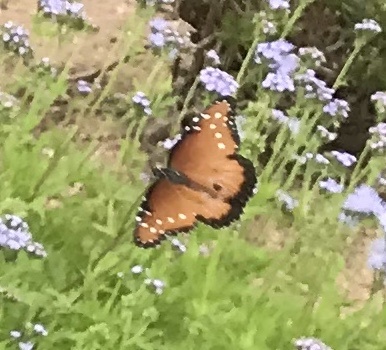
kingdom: Animalia
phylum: Arthropoda
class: Insecta
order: Lepidoptera
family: Nymphalidae
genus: Danaus
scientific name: Danaus gilippus
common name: Queen
